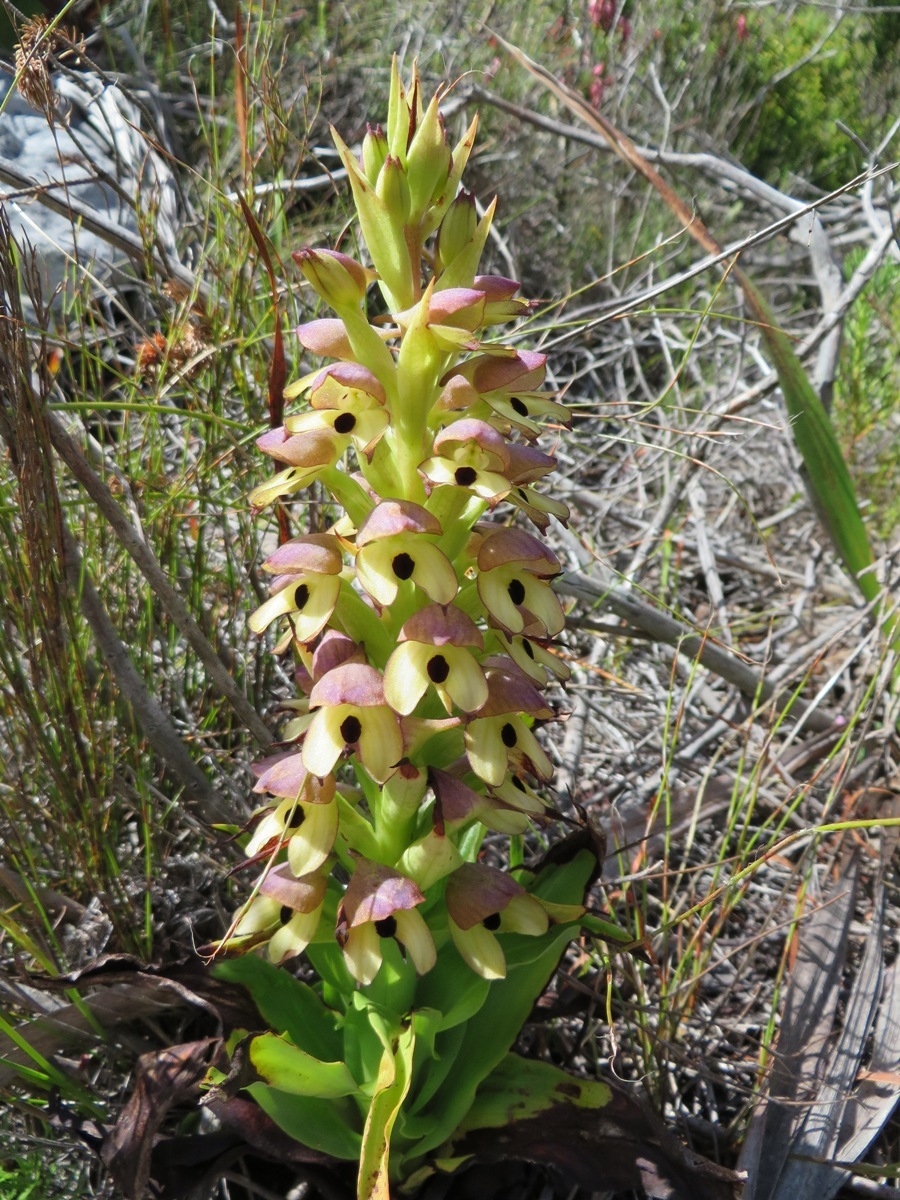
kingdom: Plantae
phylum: Tracheophyta
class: Liliopsida
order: Asparagales
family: Orchidaceae
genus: Disa
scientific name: Disa cornuta
